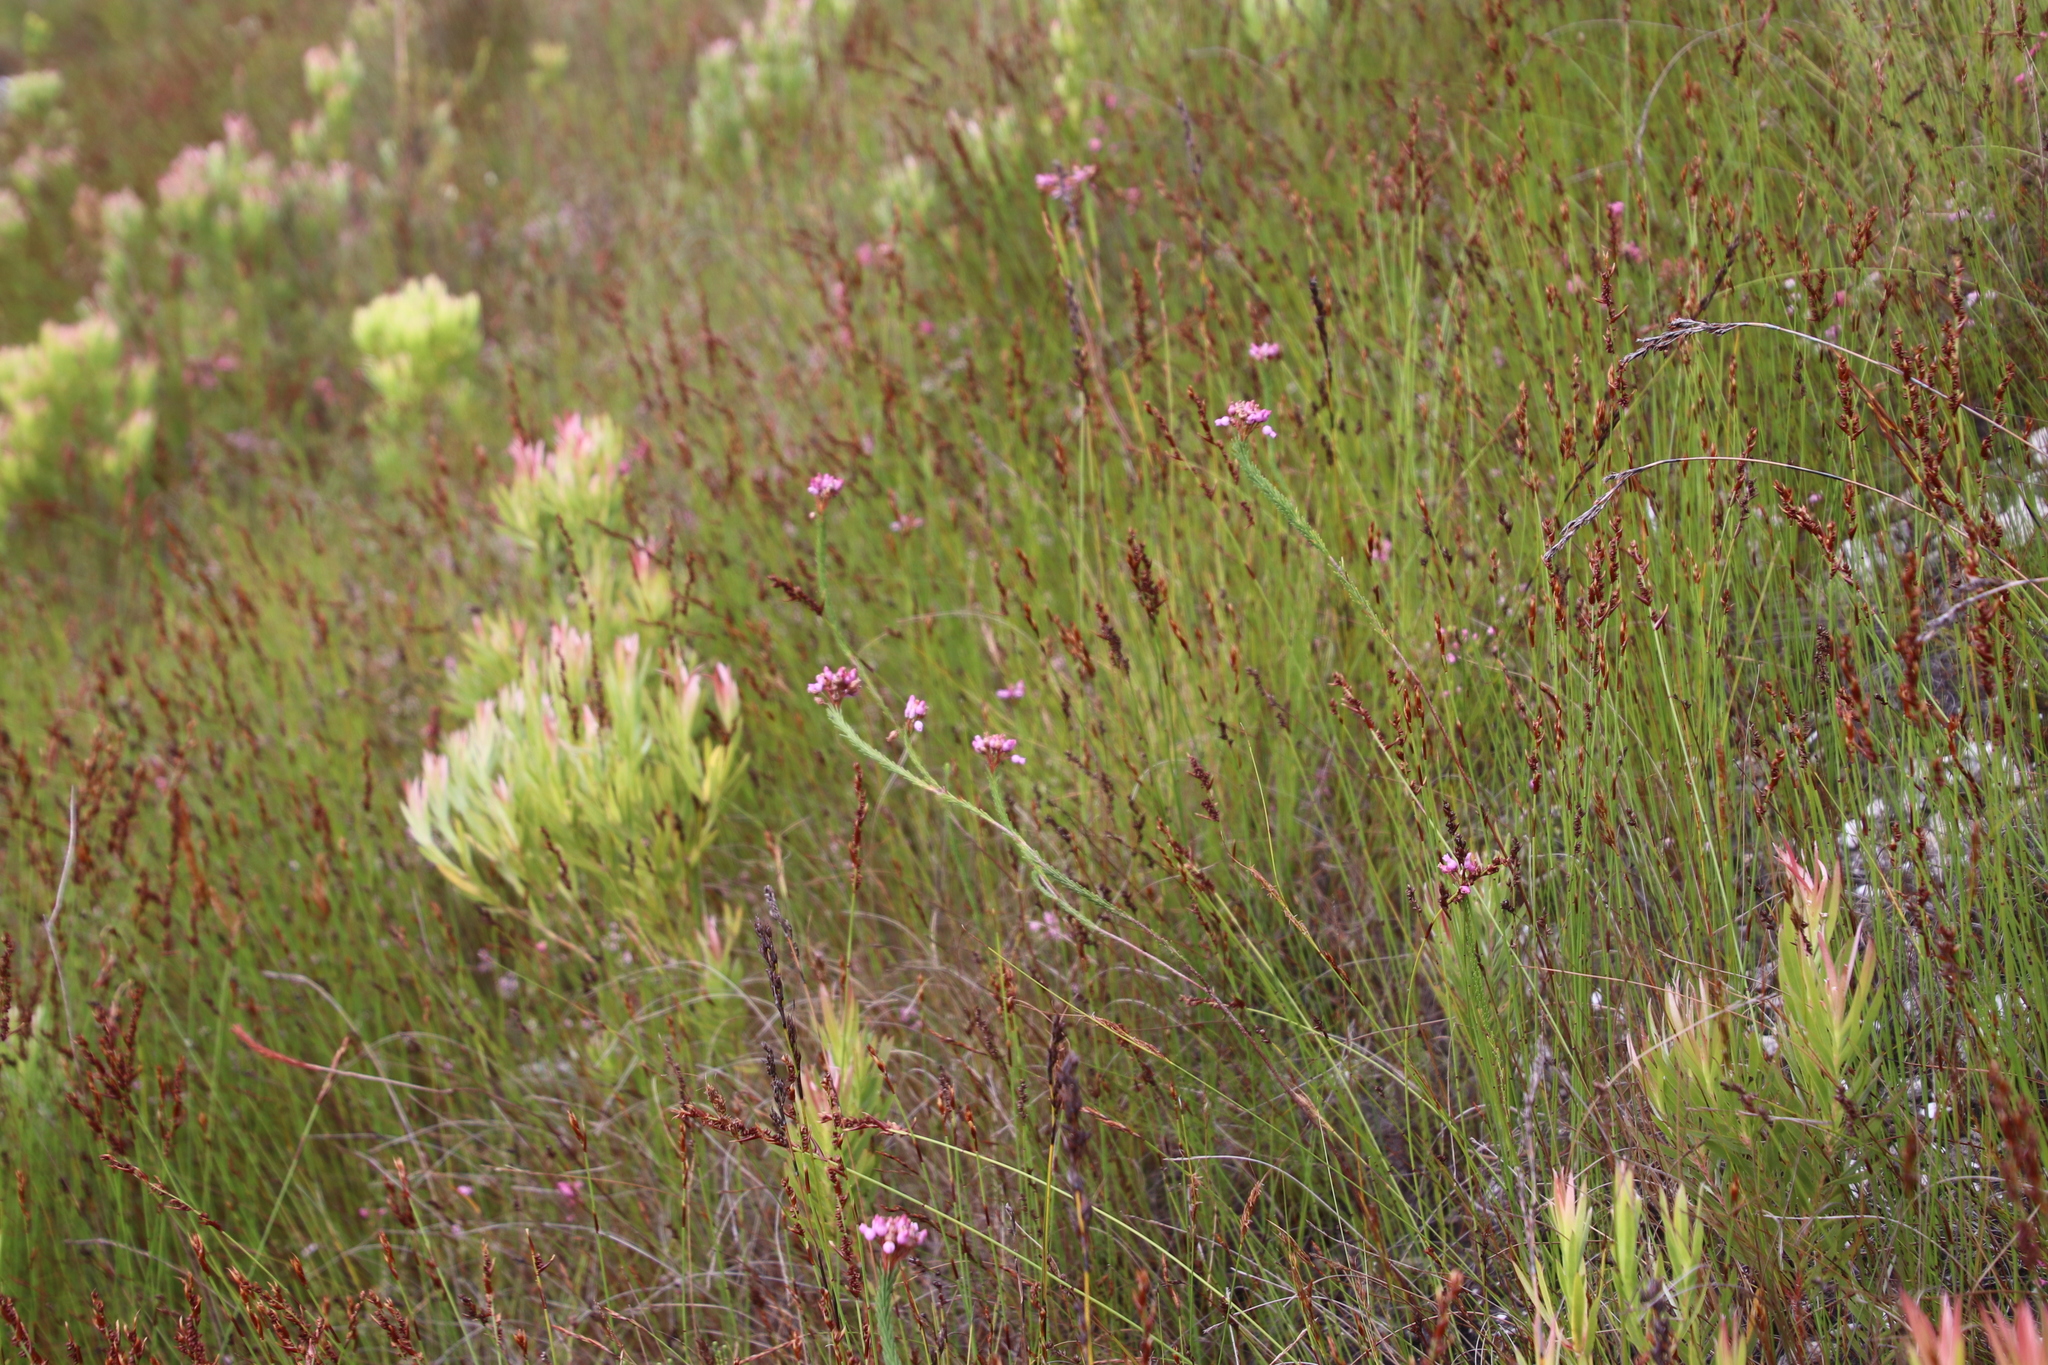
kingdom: Plantae
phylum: Tracheophyta
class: Magnoliopsida
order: Ericales
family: Ericaceae
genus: Erica
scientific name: Erica obliqua
